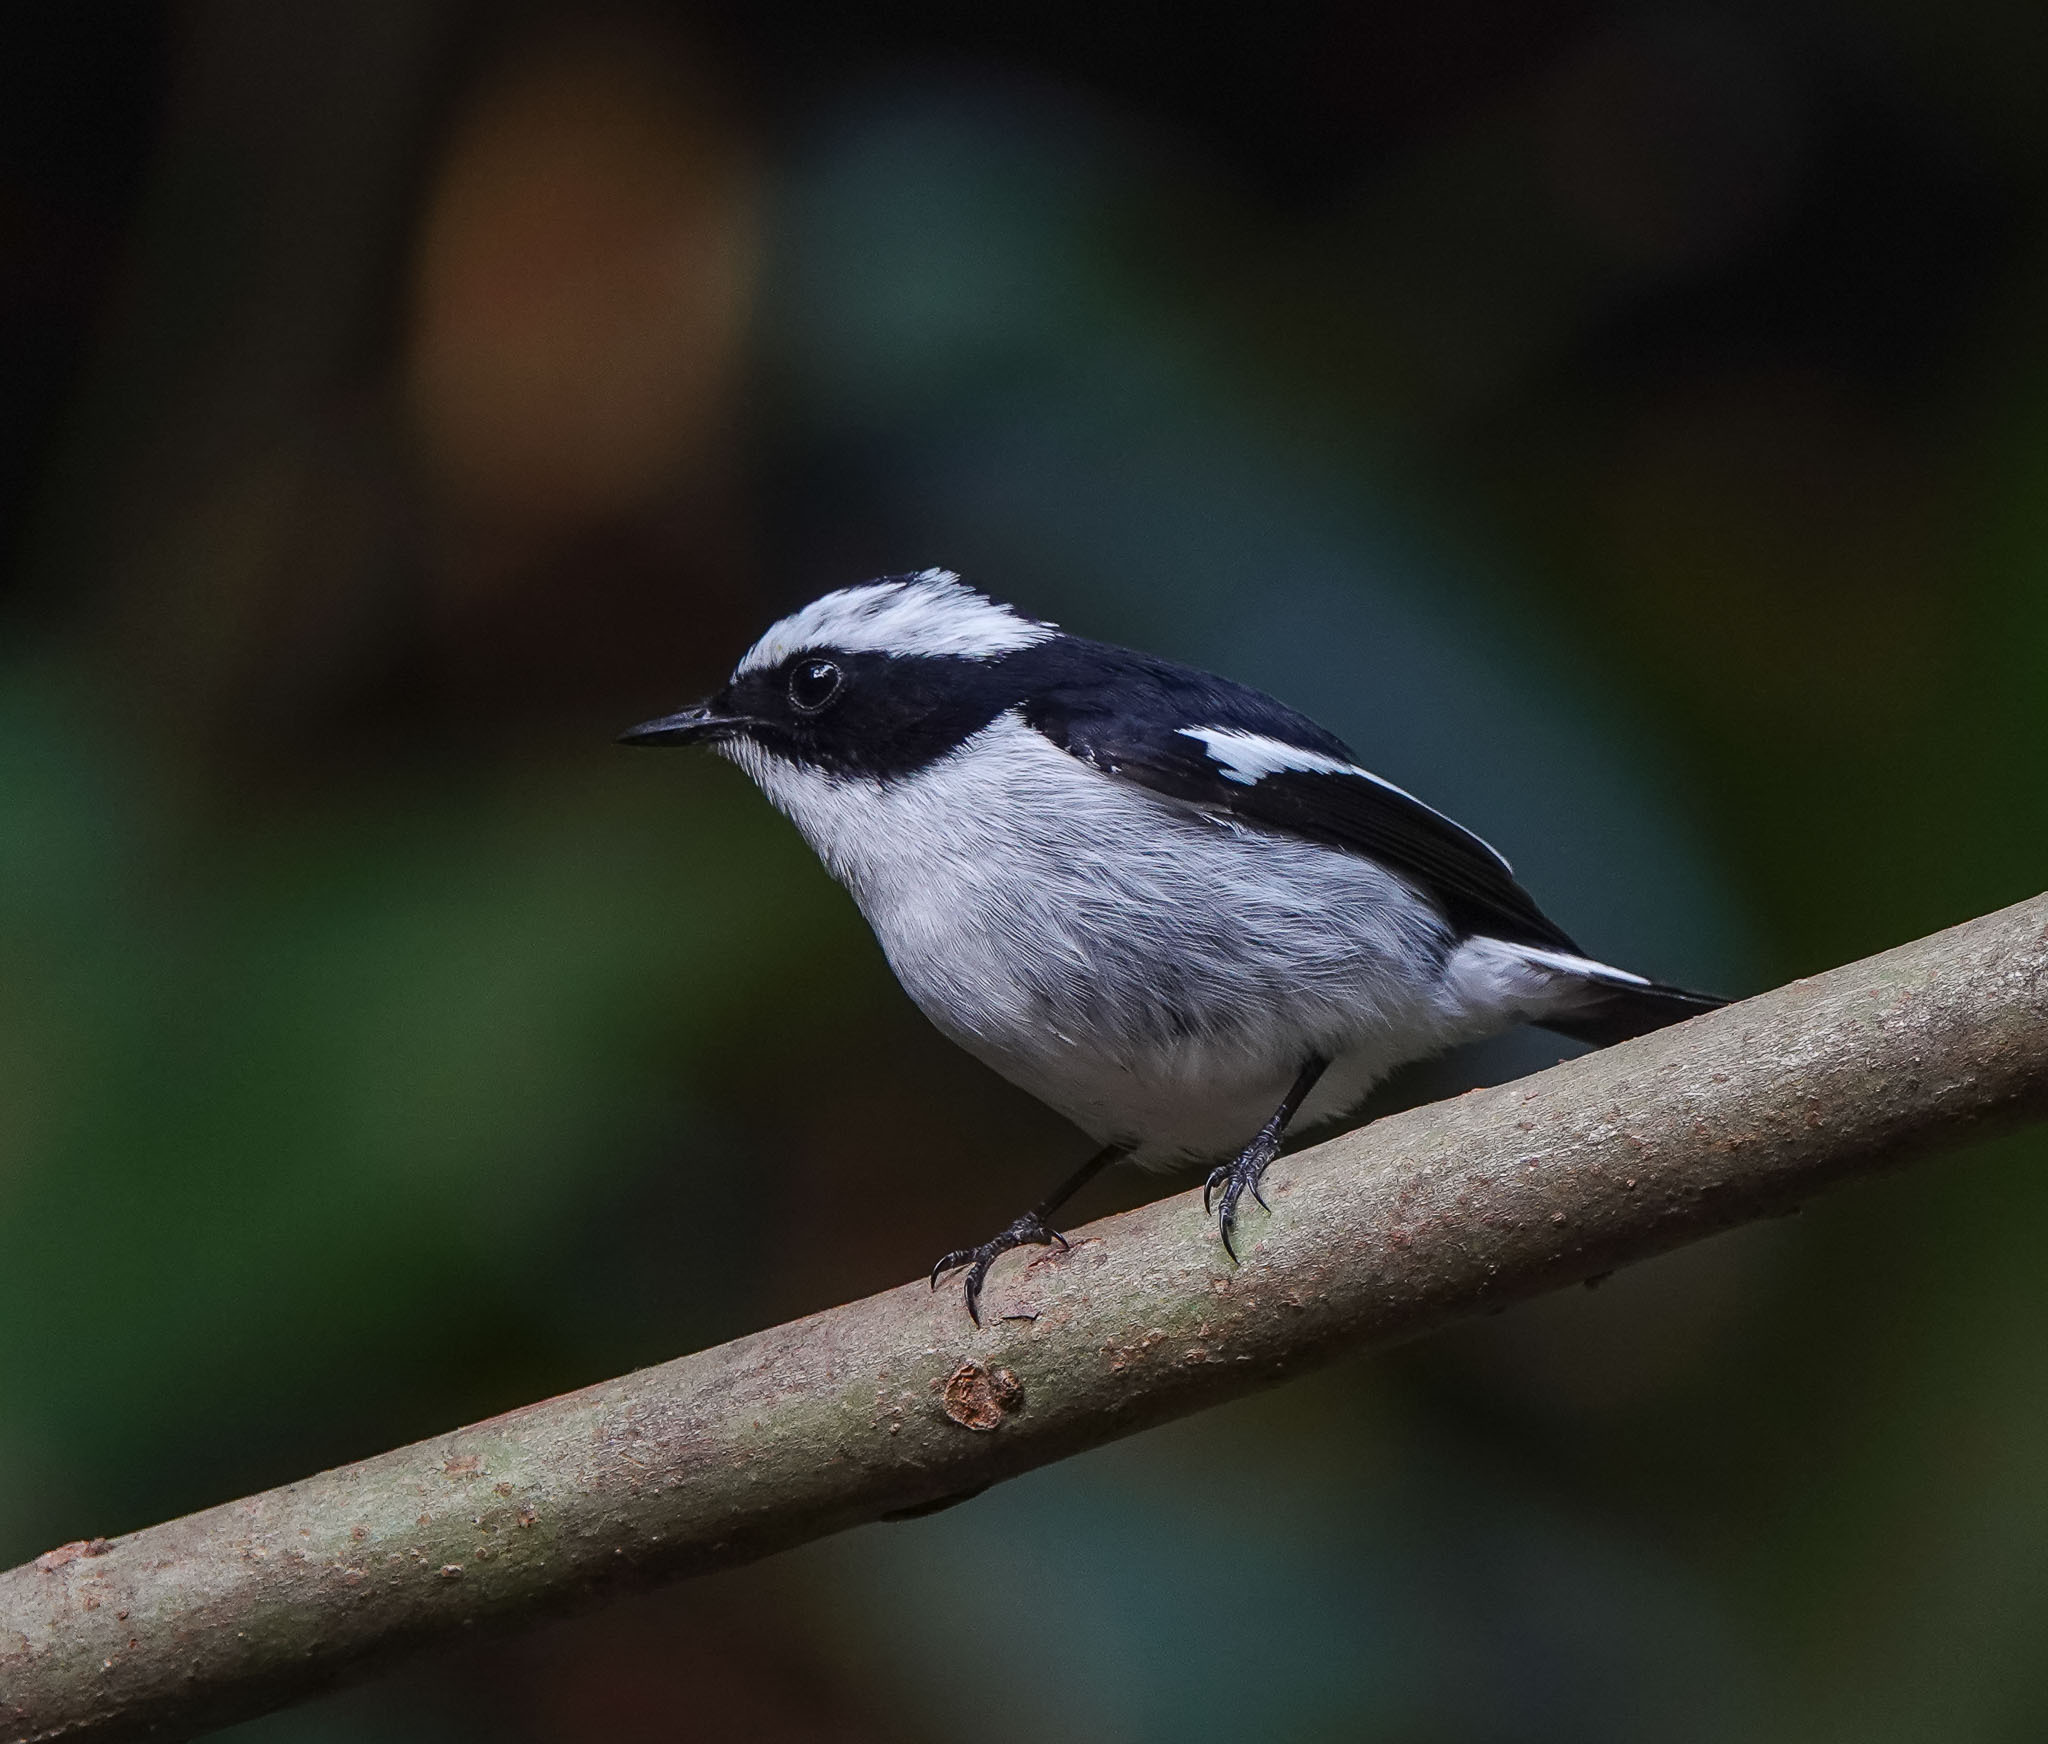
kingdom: Animalia
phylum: Chordata
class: Aves
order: Passeriformes
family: Muscicapidae
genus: Ficedula
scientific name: Ficedula westermanni
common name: Little pied flycatcher
